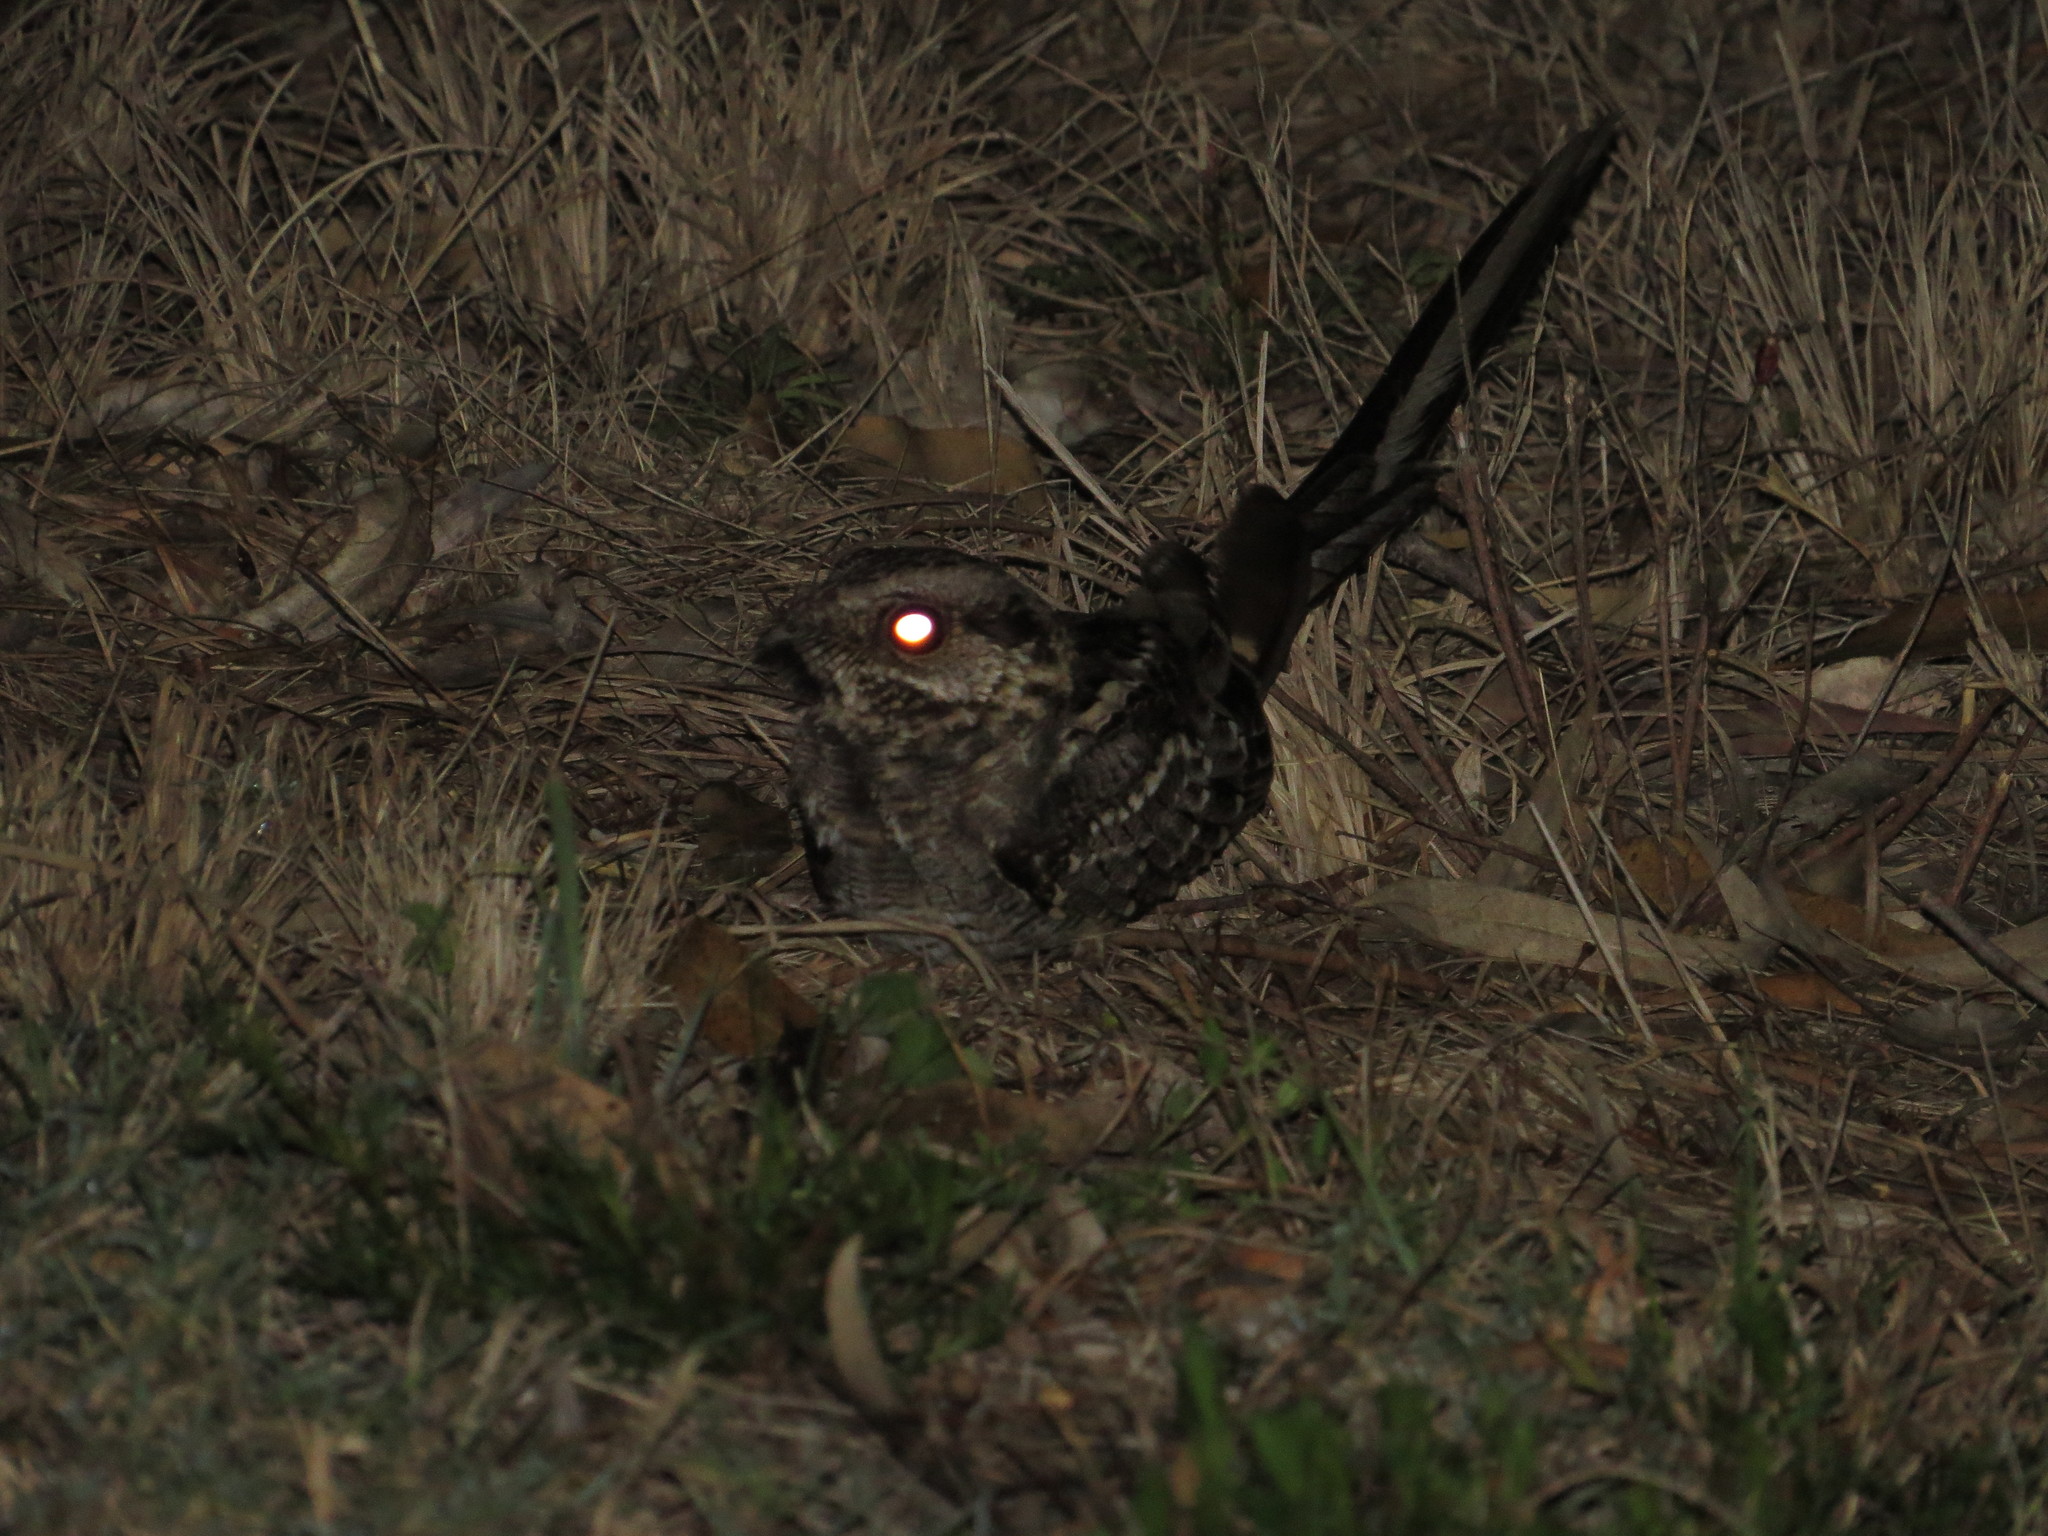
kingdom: Animalia
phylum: Chordata
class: Aves
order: Caprimulgiformes
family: Caprimulgidae
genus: Hydropsalis
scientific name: Hydropsalis torquata
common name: Scissor-tailed nightjar
